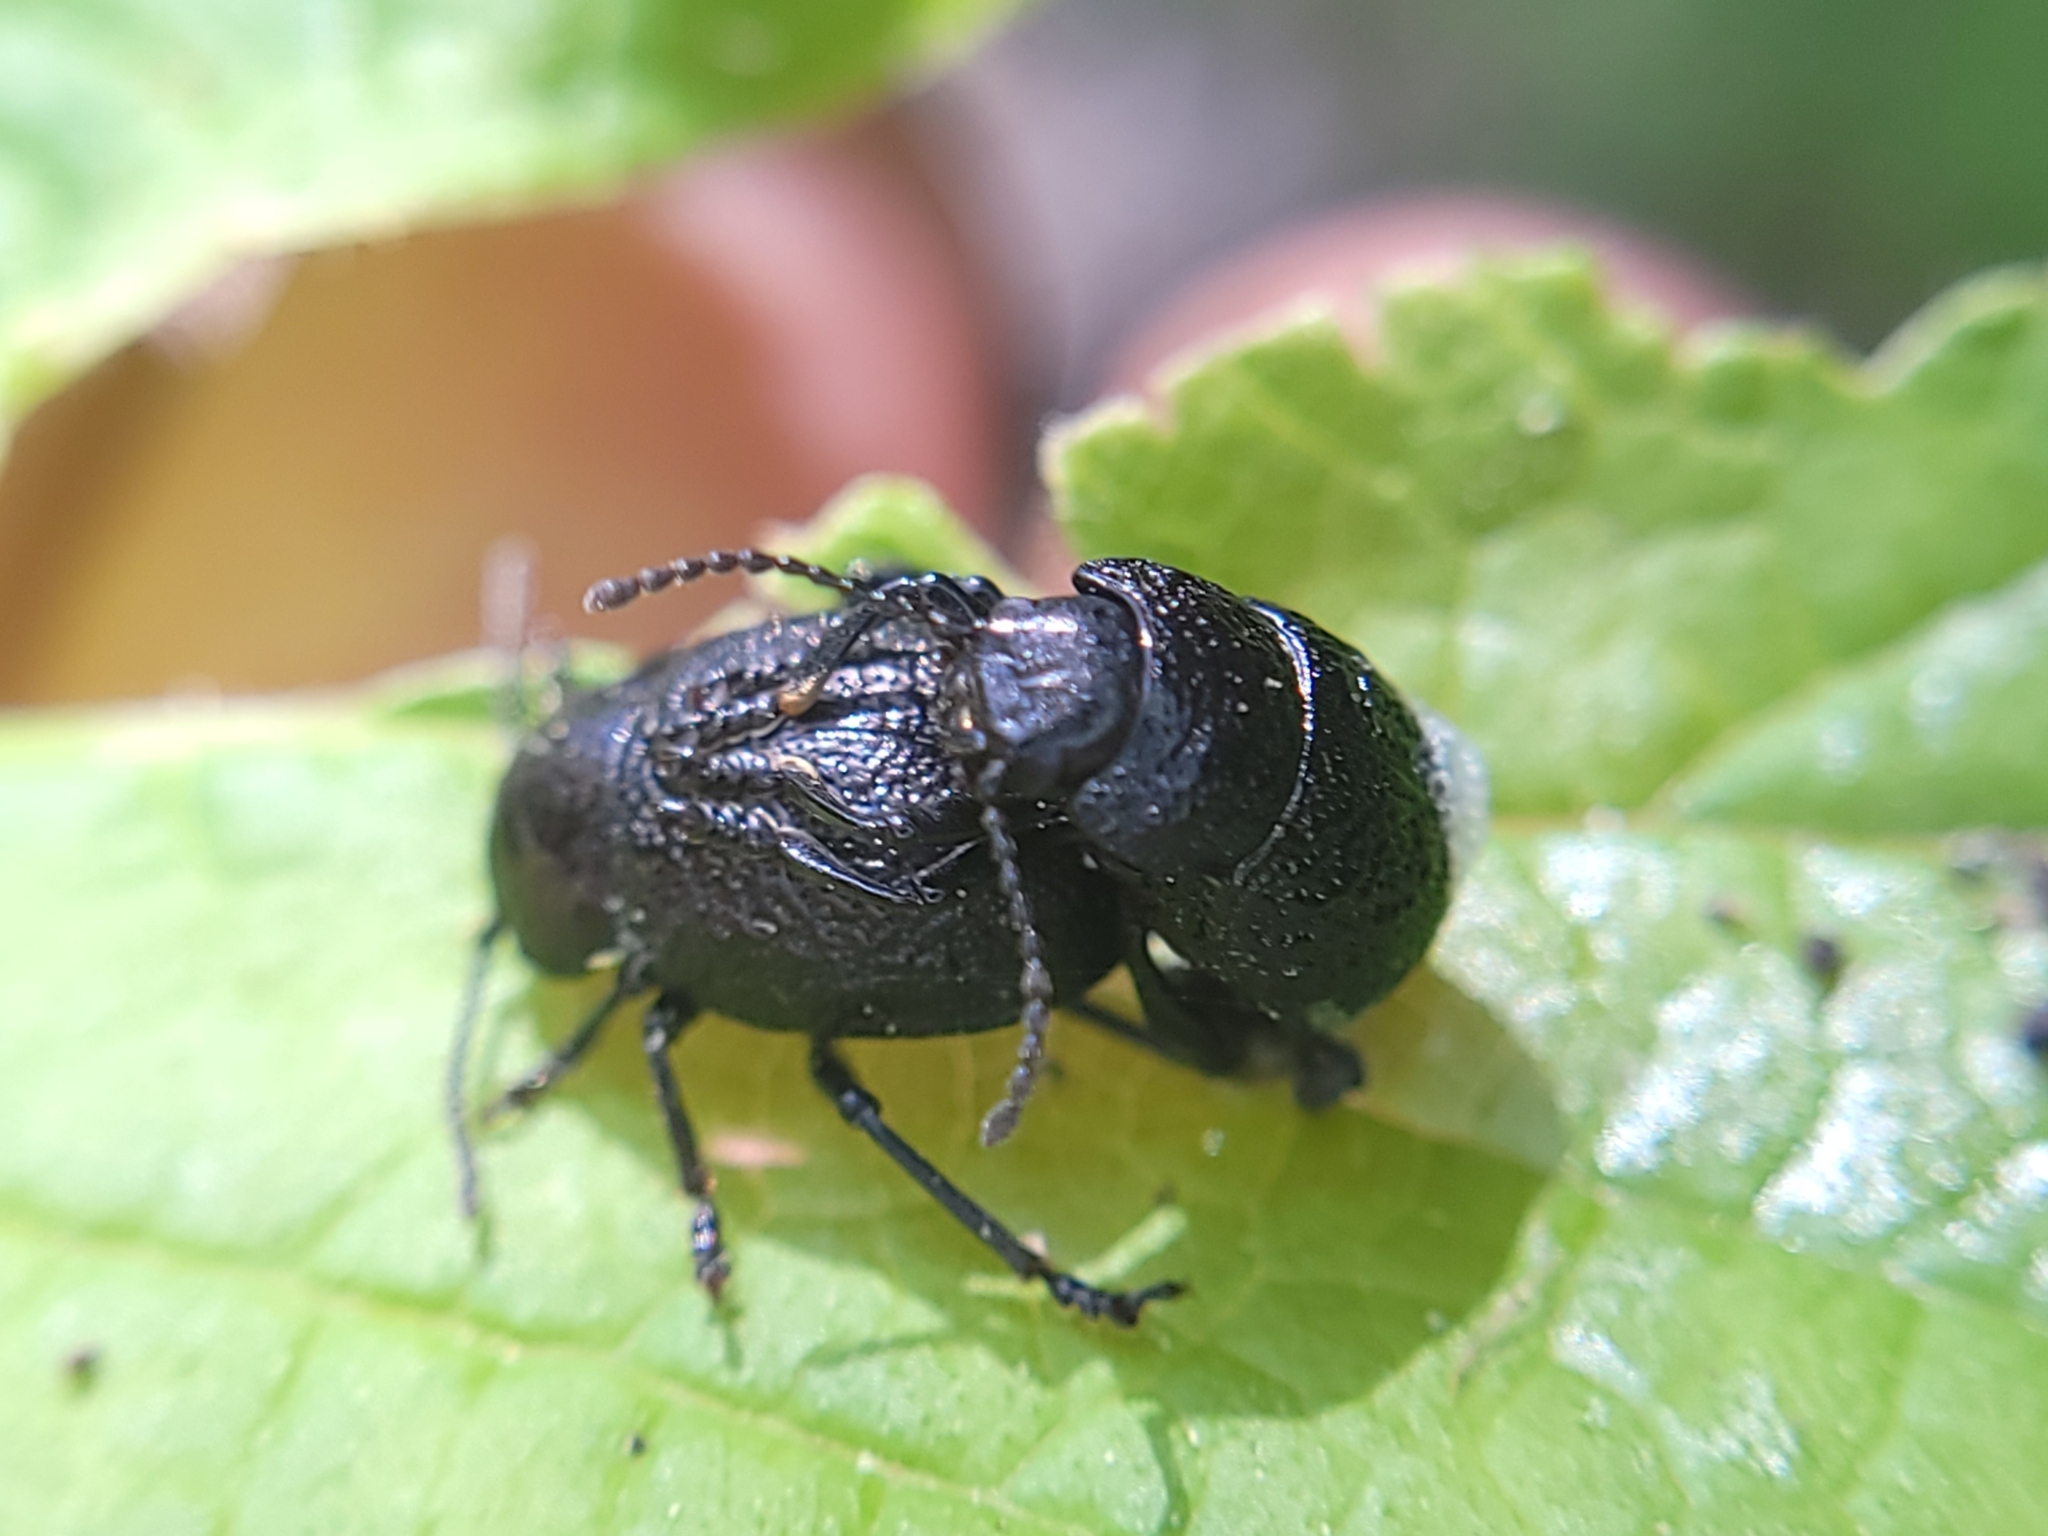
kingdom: Animalia
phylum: Arthropoda
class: Insecta
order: Coleoptera
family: Chrysomelidae
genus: Timarcha
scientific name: Timarcha intricata
